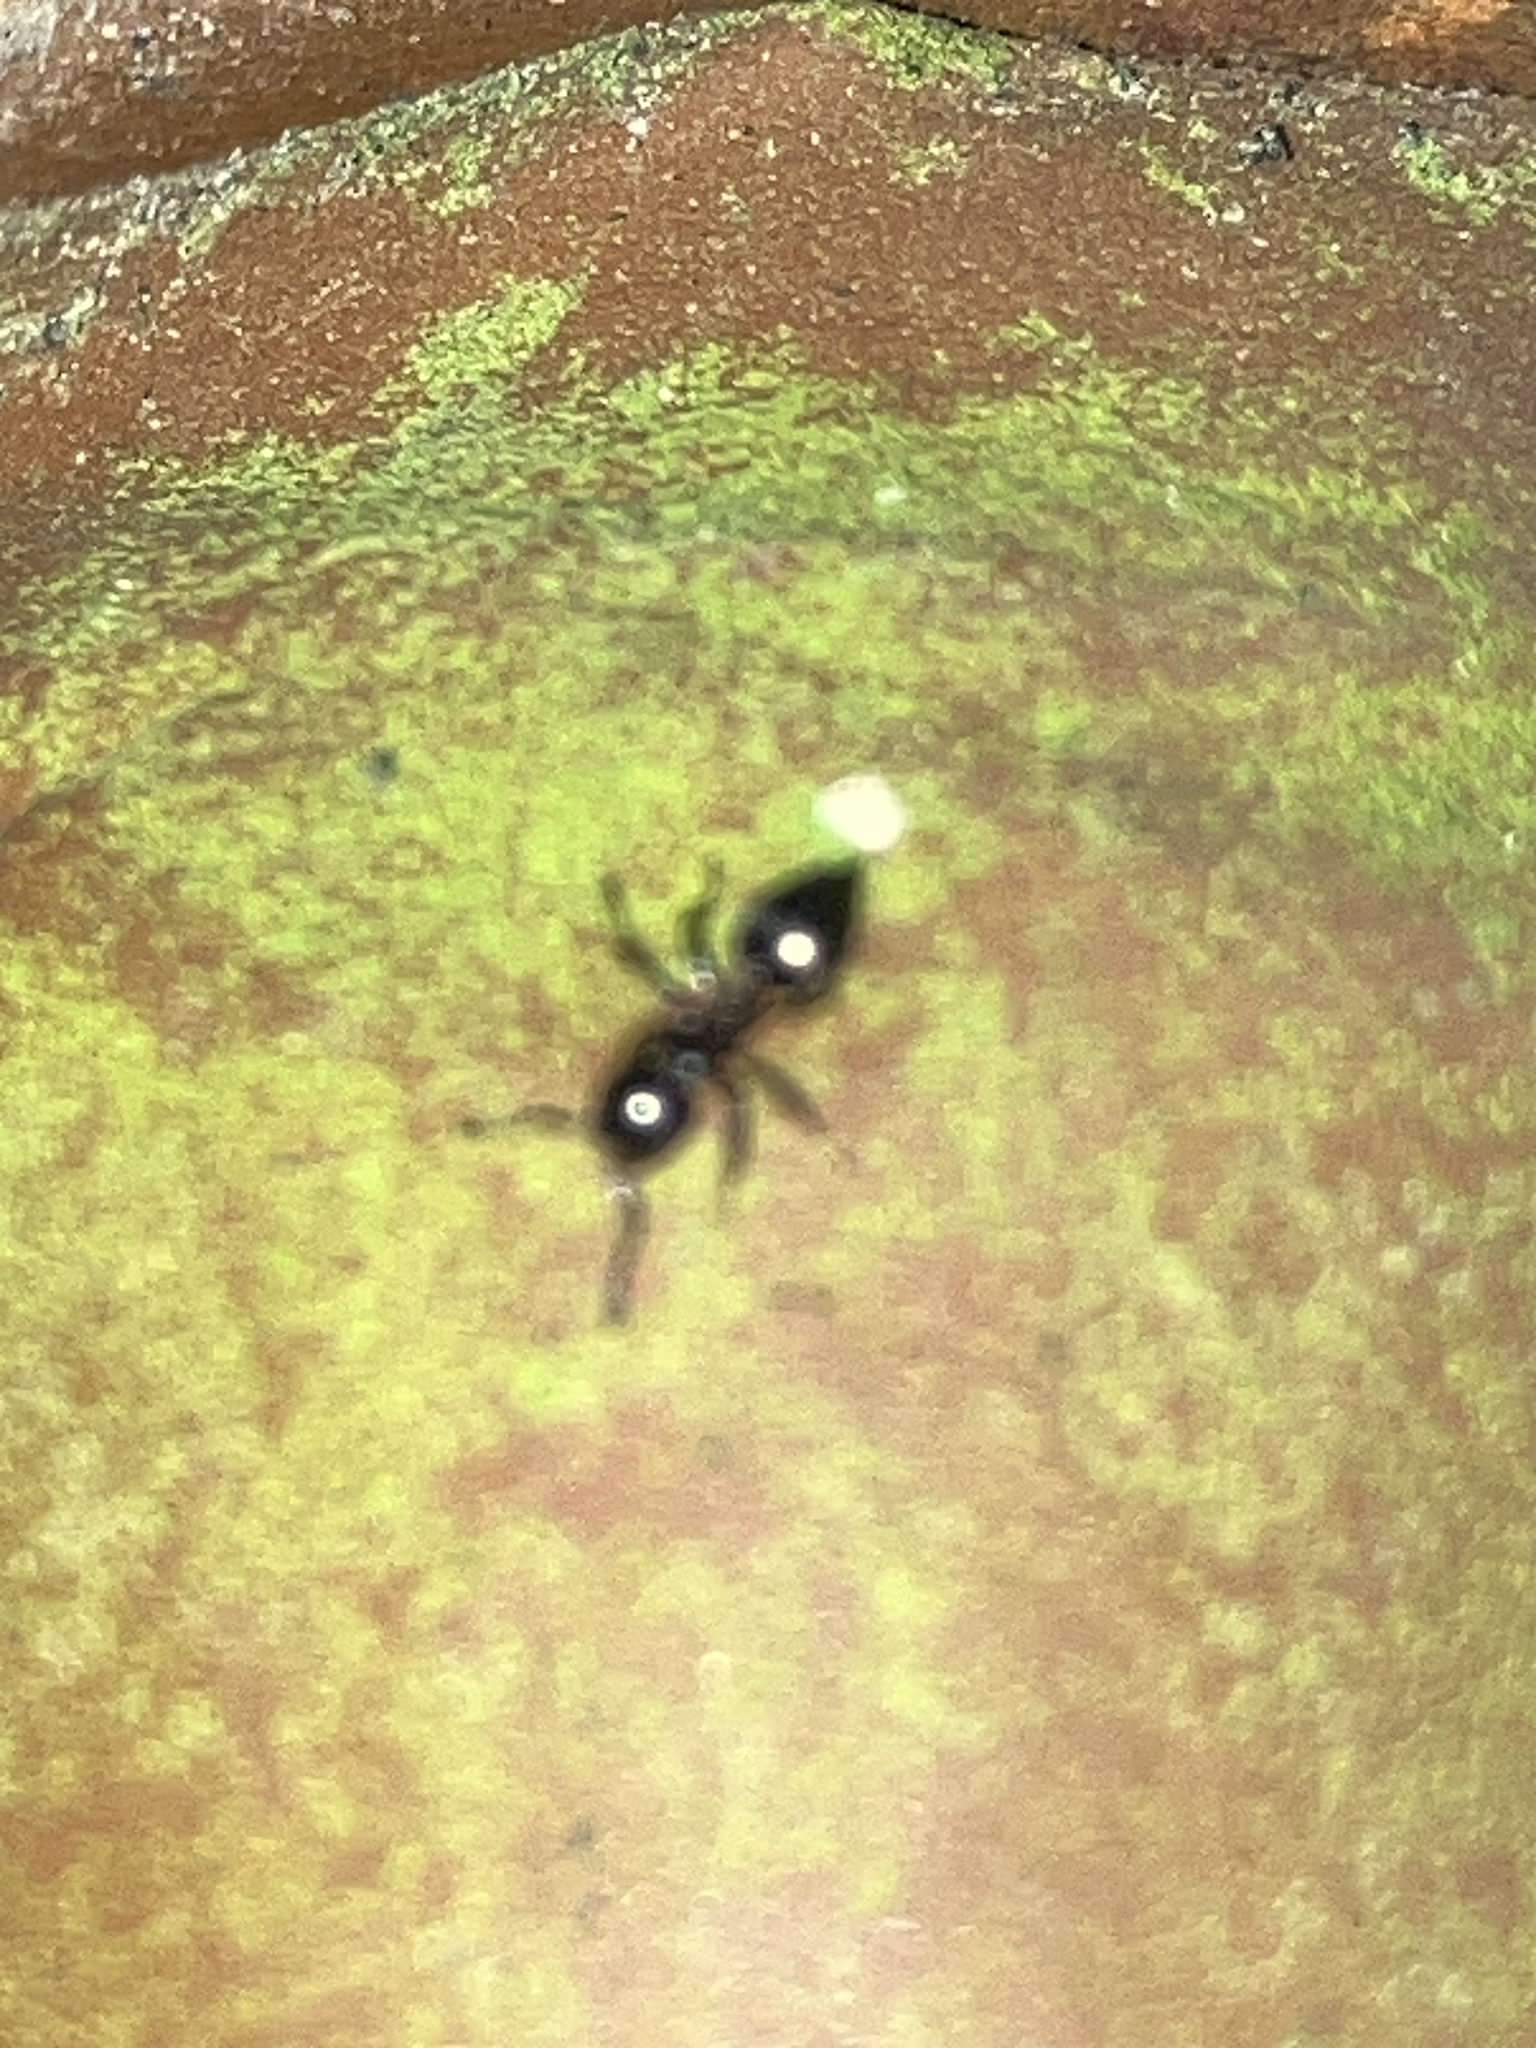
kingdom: Animalia
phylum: Arthropoda
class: Insecta
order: Hymenoptera
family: Formicidae
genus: Crematogaster
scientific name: Crematogaster ashmeadi
